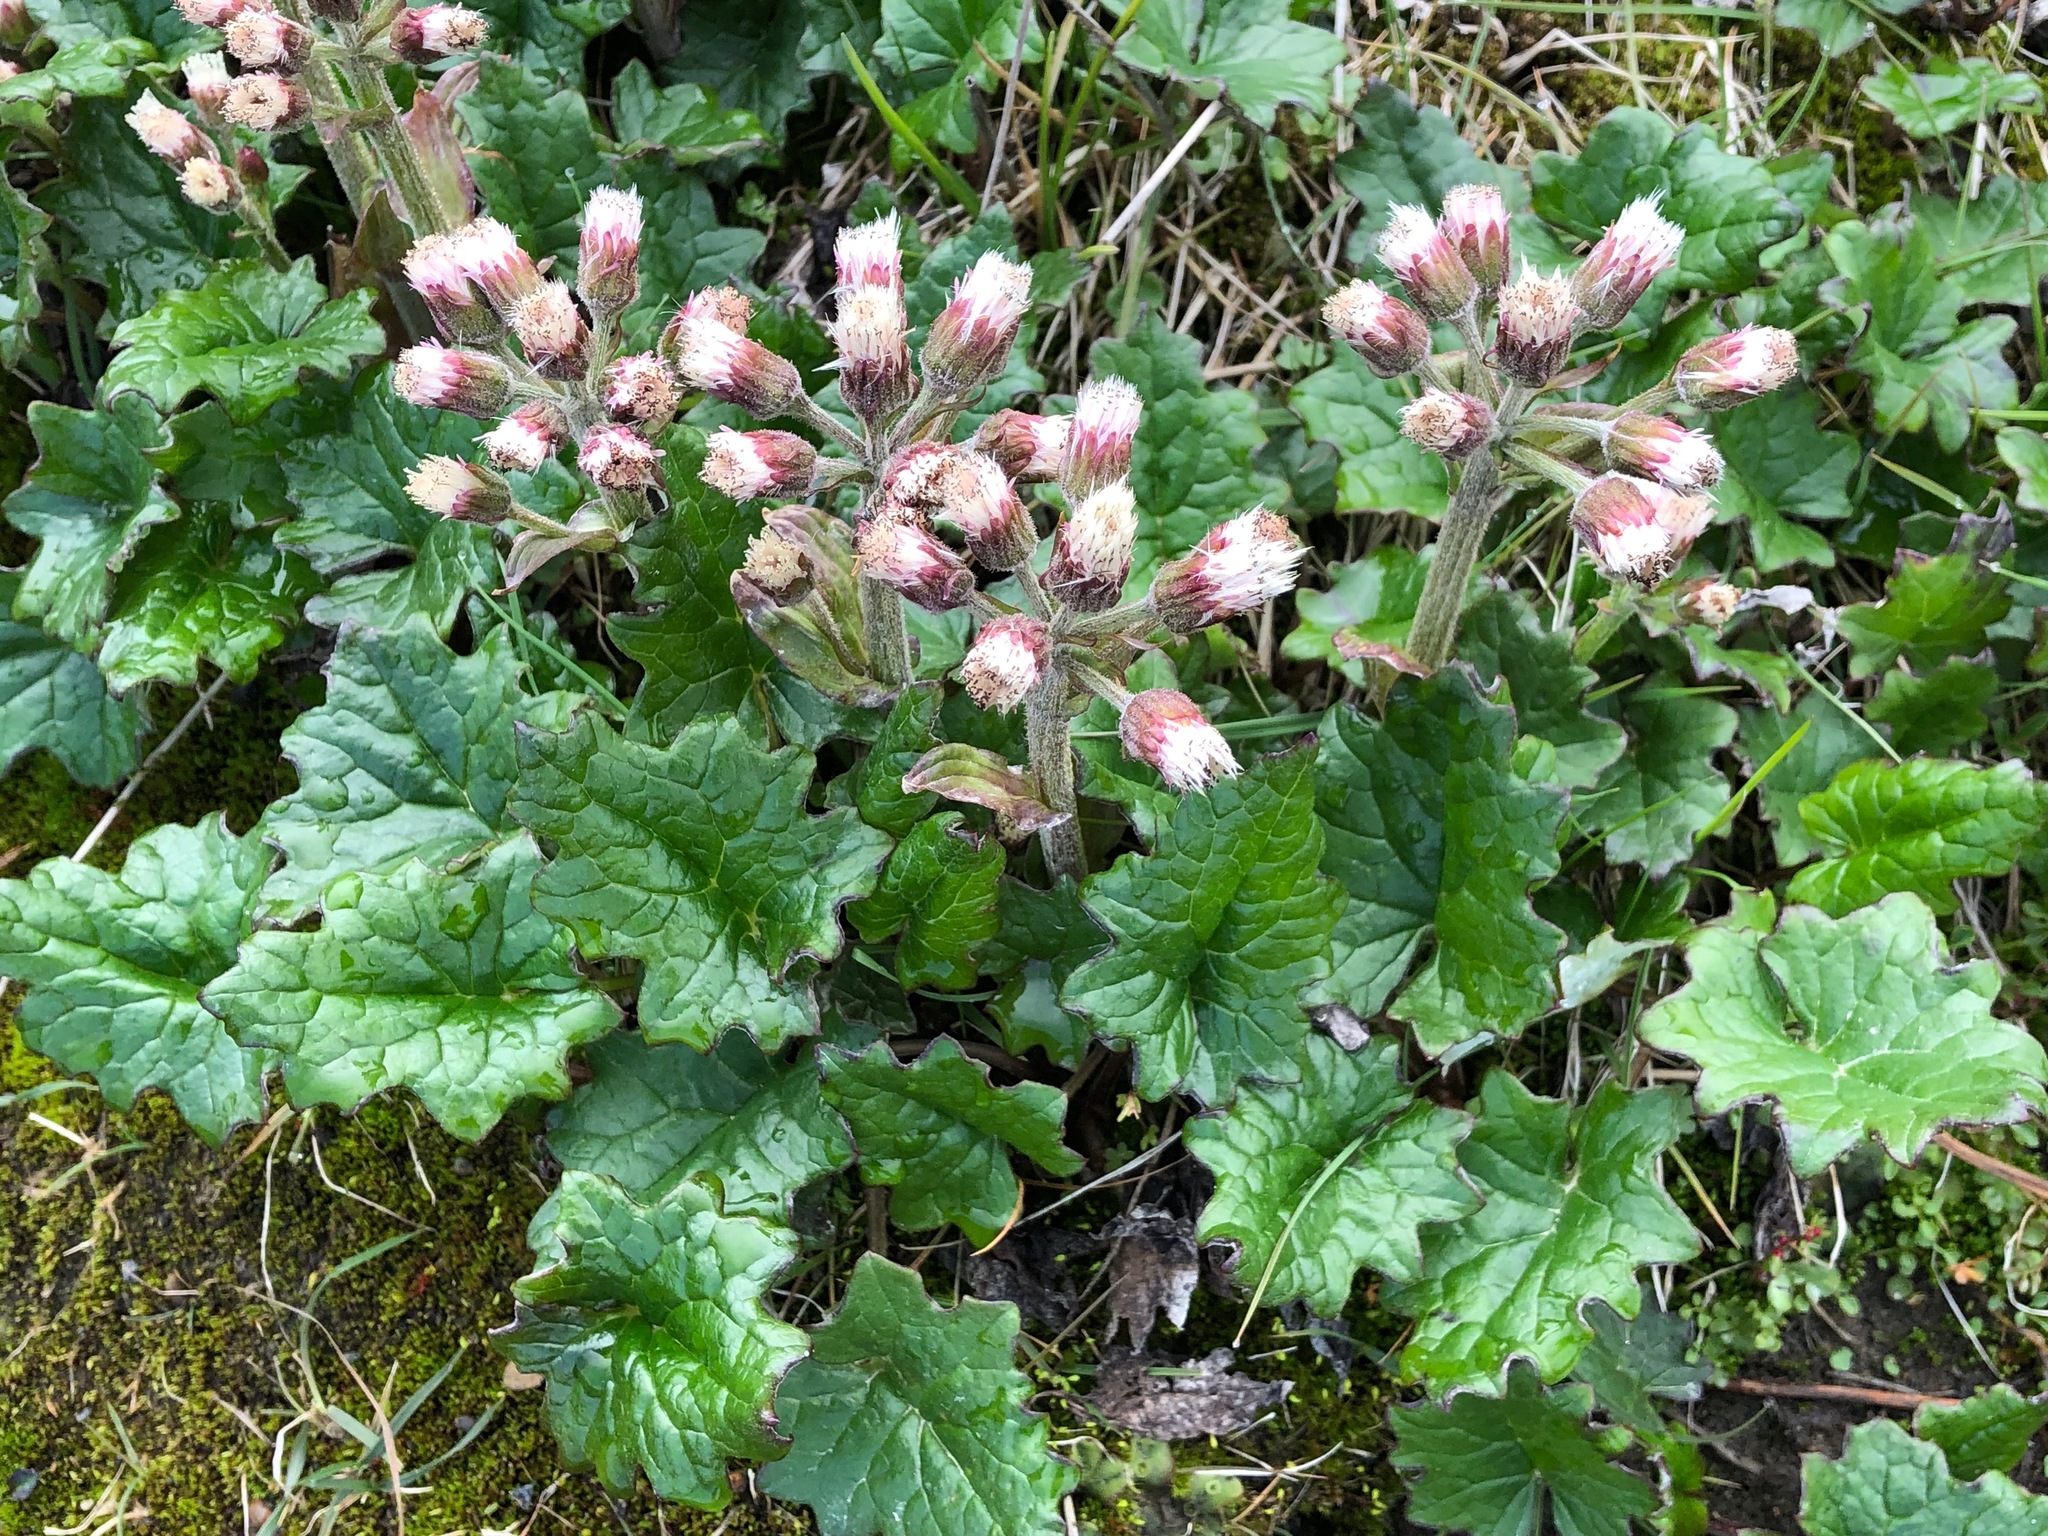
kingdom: Plantae
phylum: Tracheophyta
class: Magnoliopsida
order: Asterales
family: Asteraceae
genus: Petasites
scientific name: Petasites frigidus
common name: Arctic butterbur
